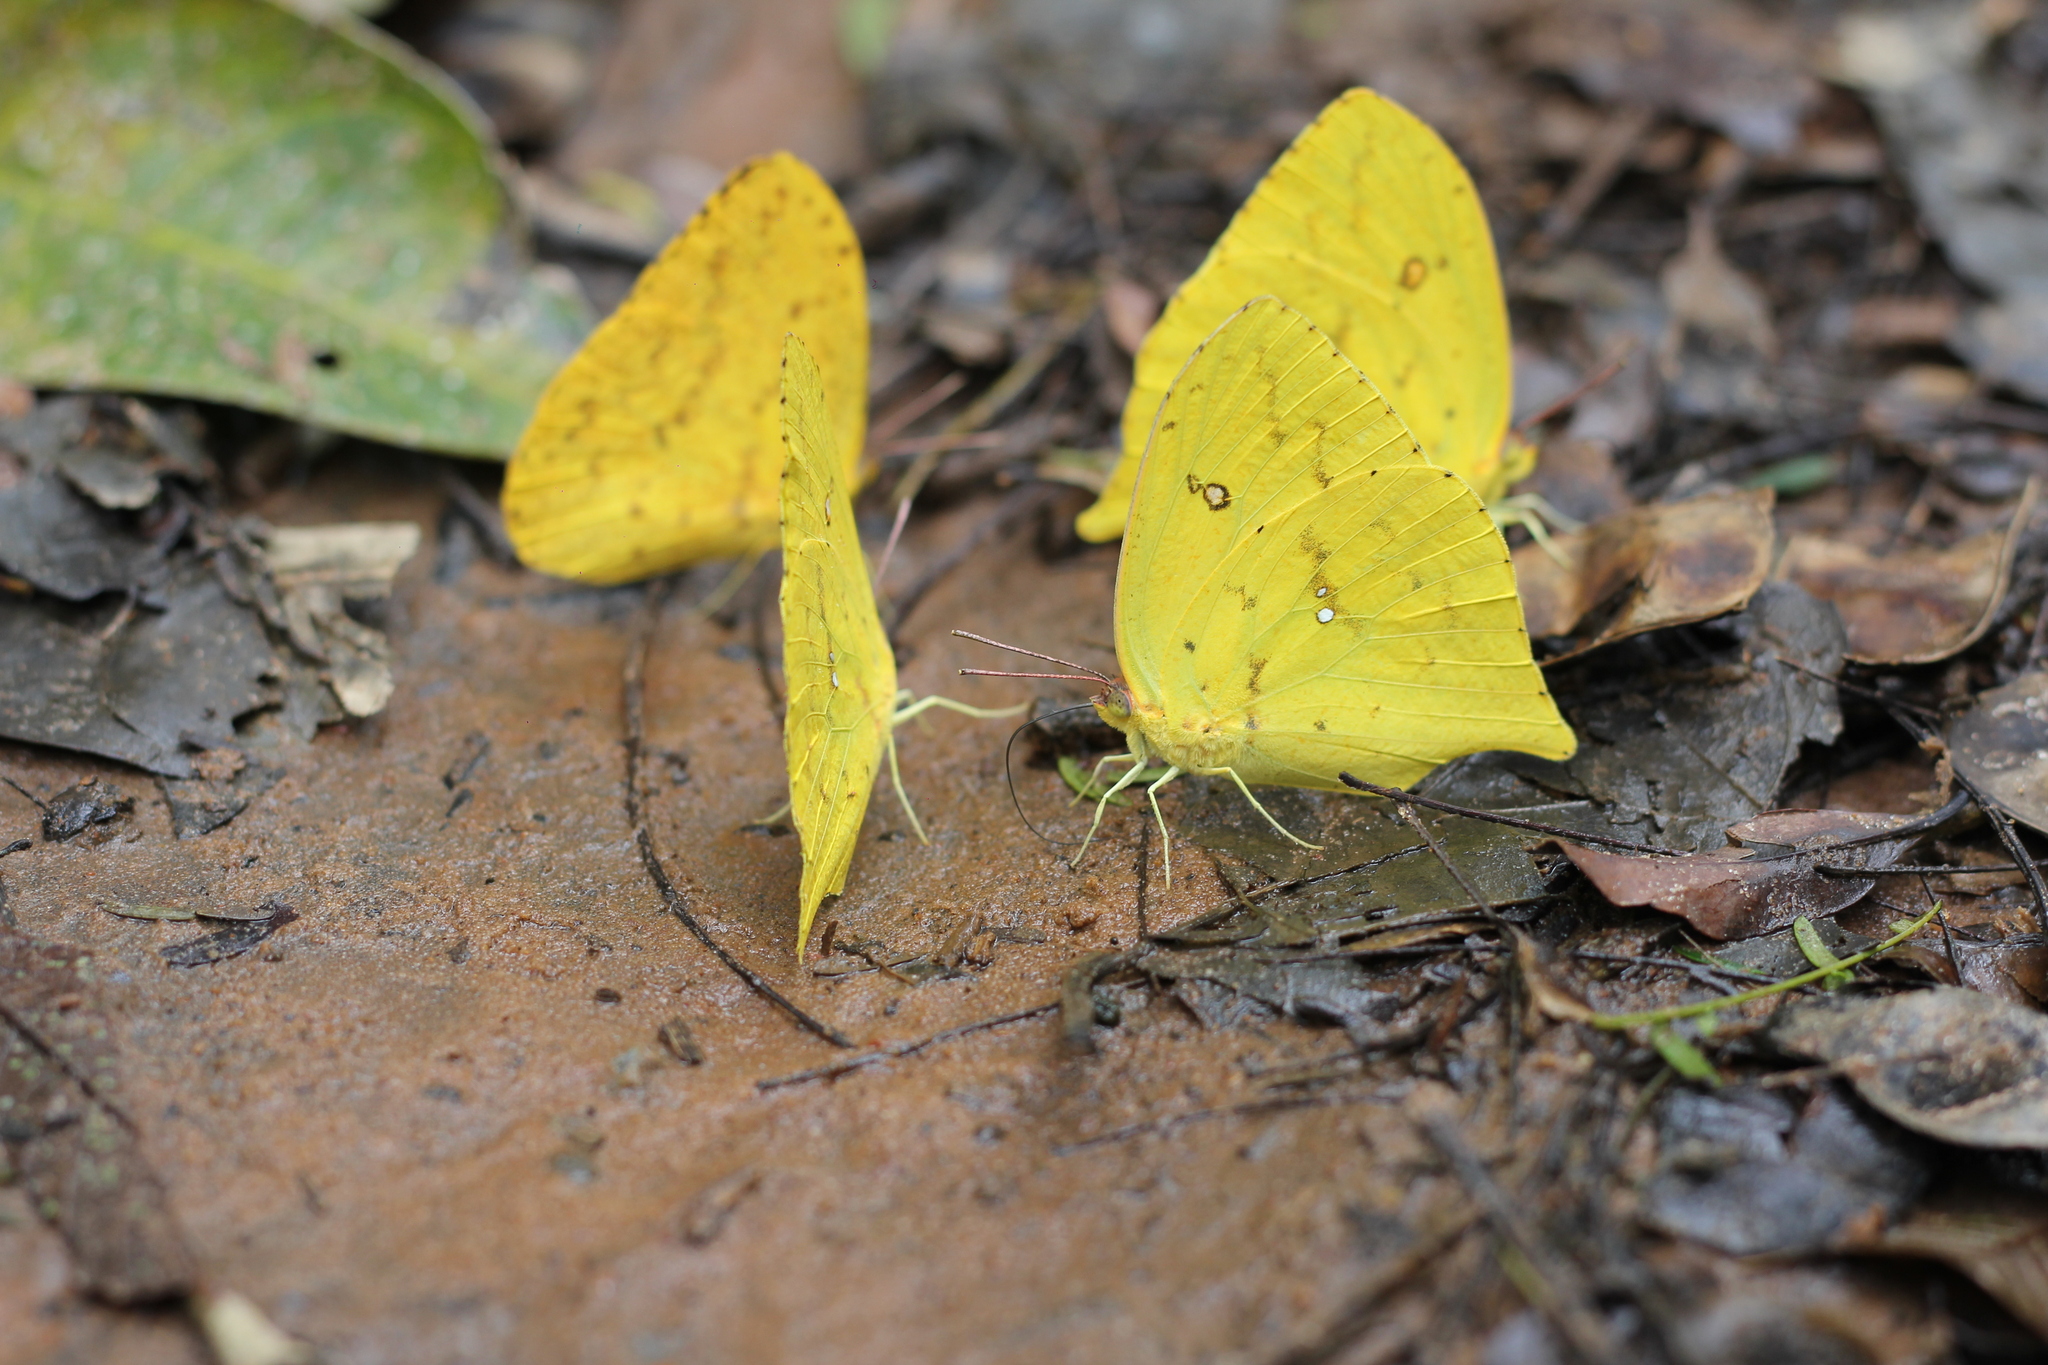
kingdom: Animalia
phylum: Arthropoda
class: Insecta
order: Lepidoptera
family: Pieridae
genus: Phoebis
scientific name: Phoebis neocypris
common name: Tailed sulphur
